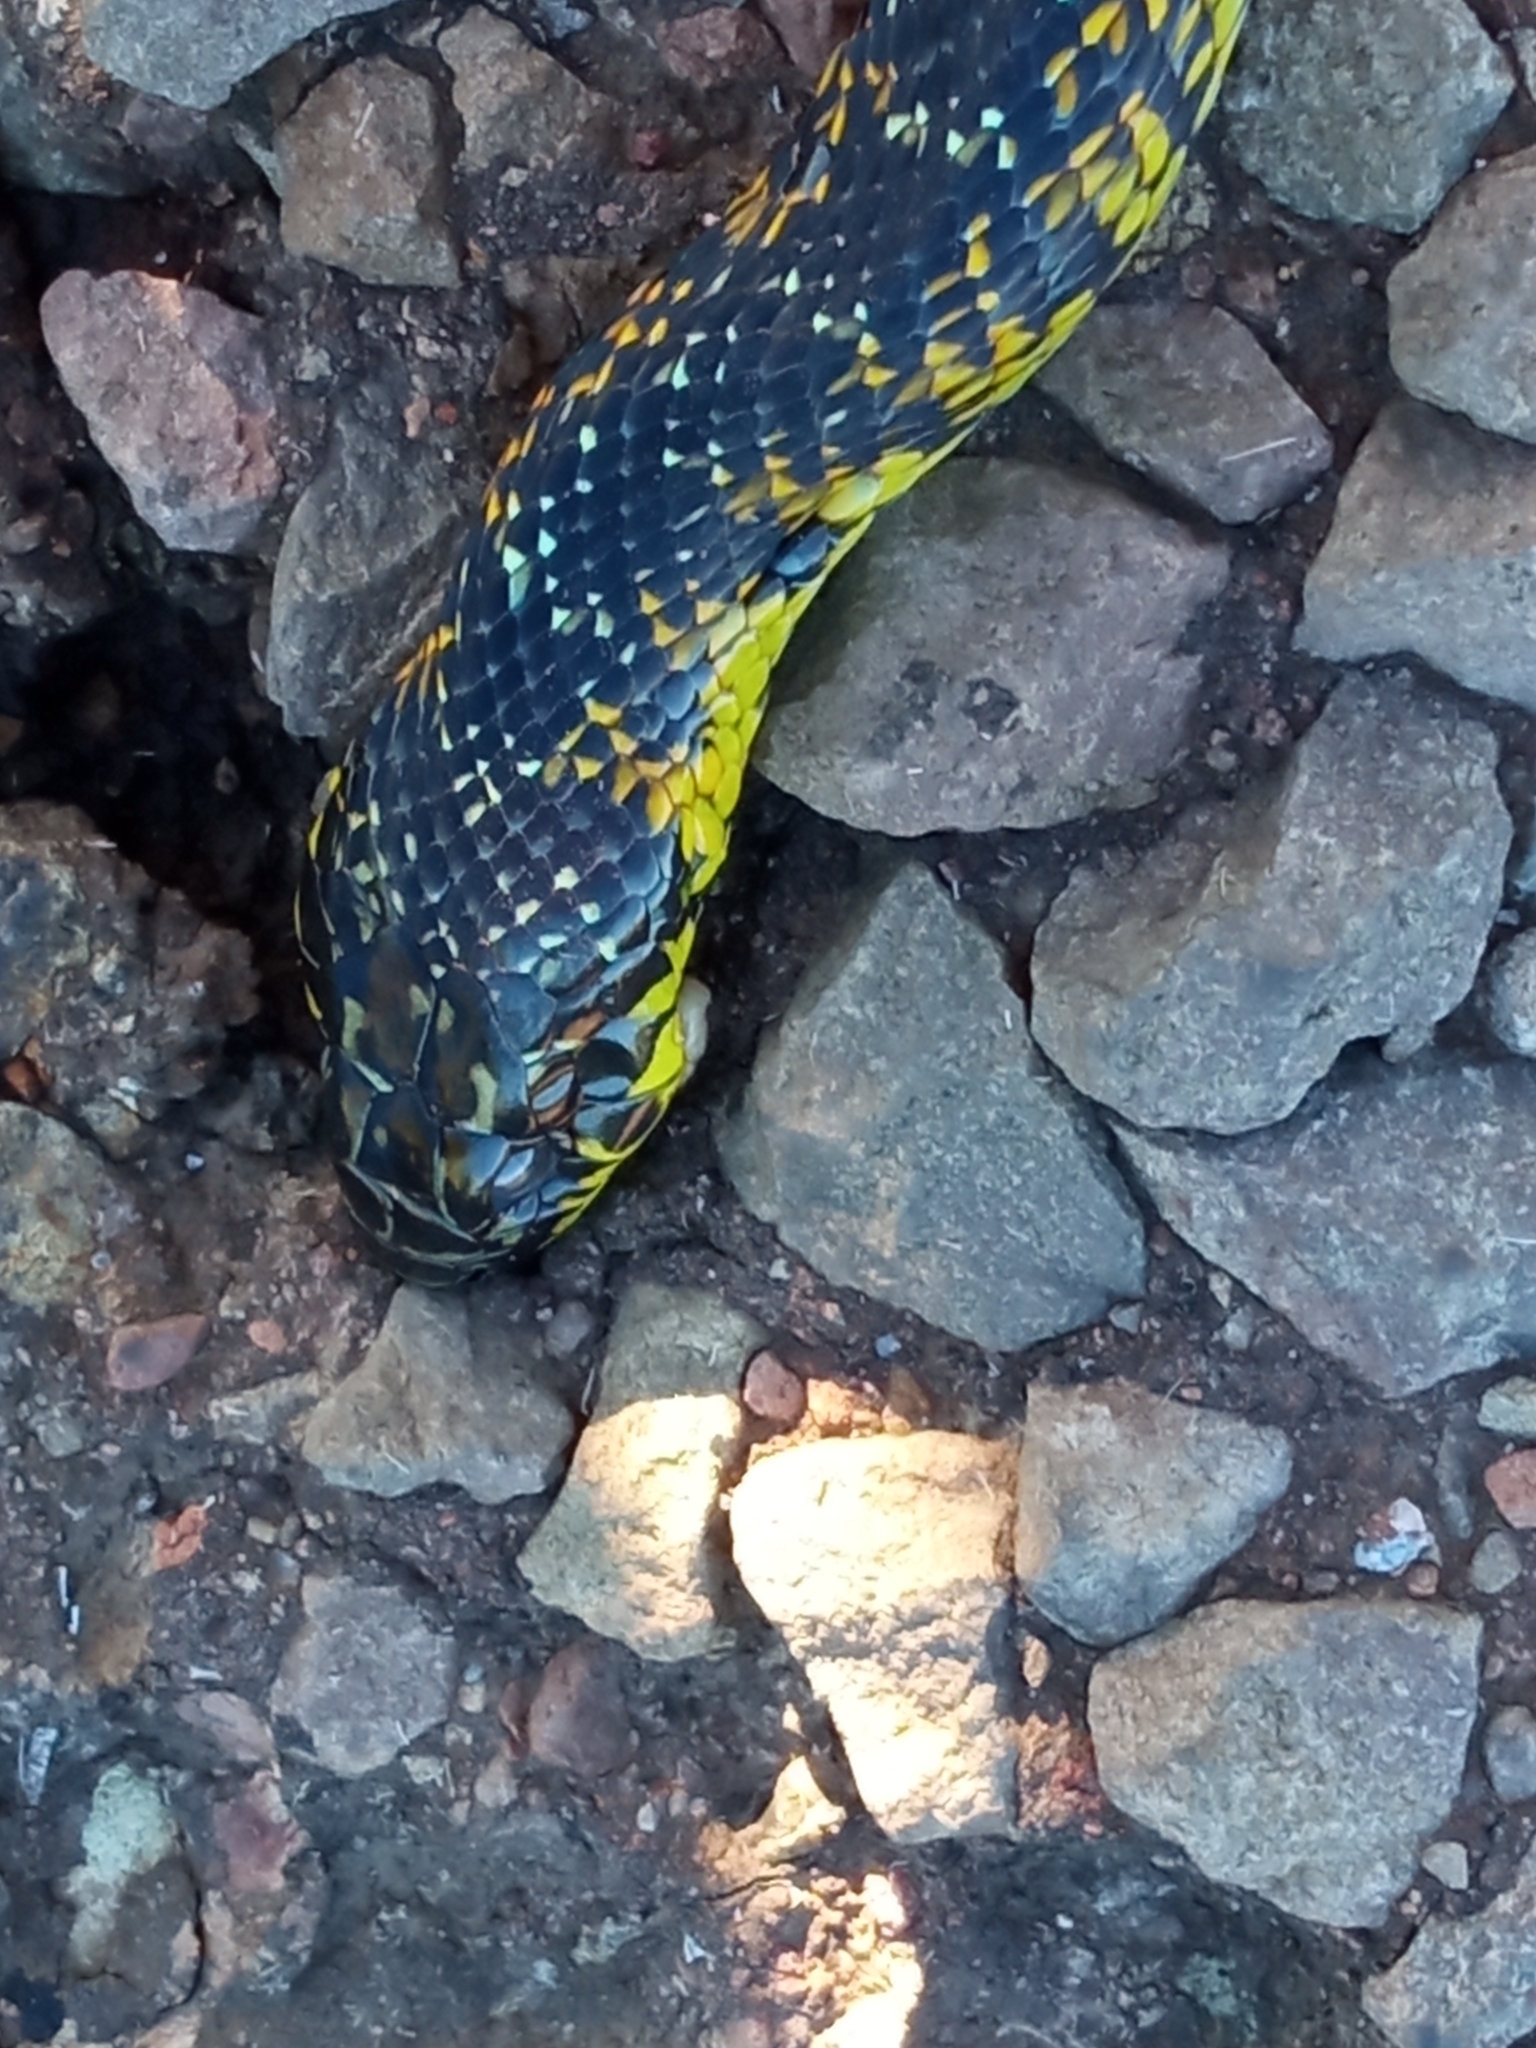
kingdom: Animalia
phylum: Chordata
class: Squamata
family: Colubridae
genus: Erythrolamprus
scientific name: Erythrolamprus poecilogyrus
